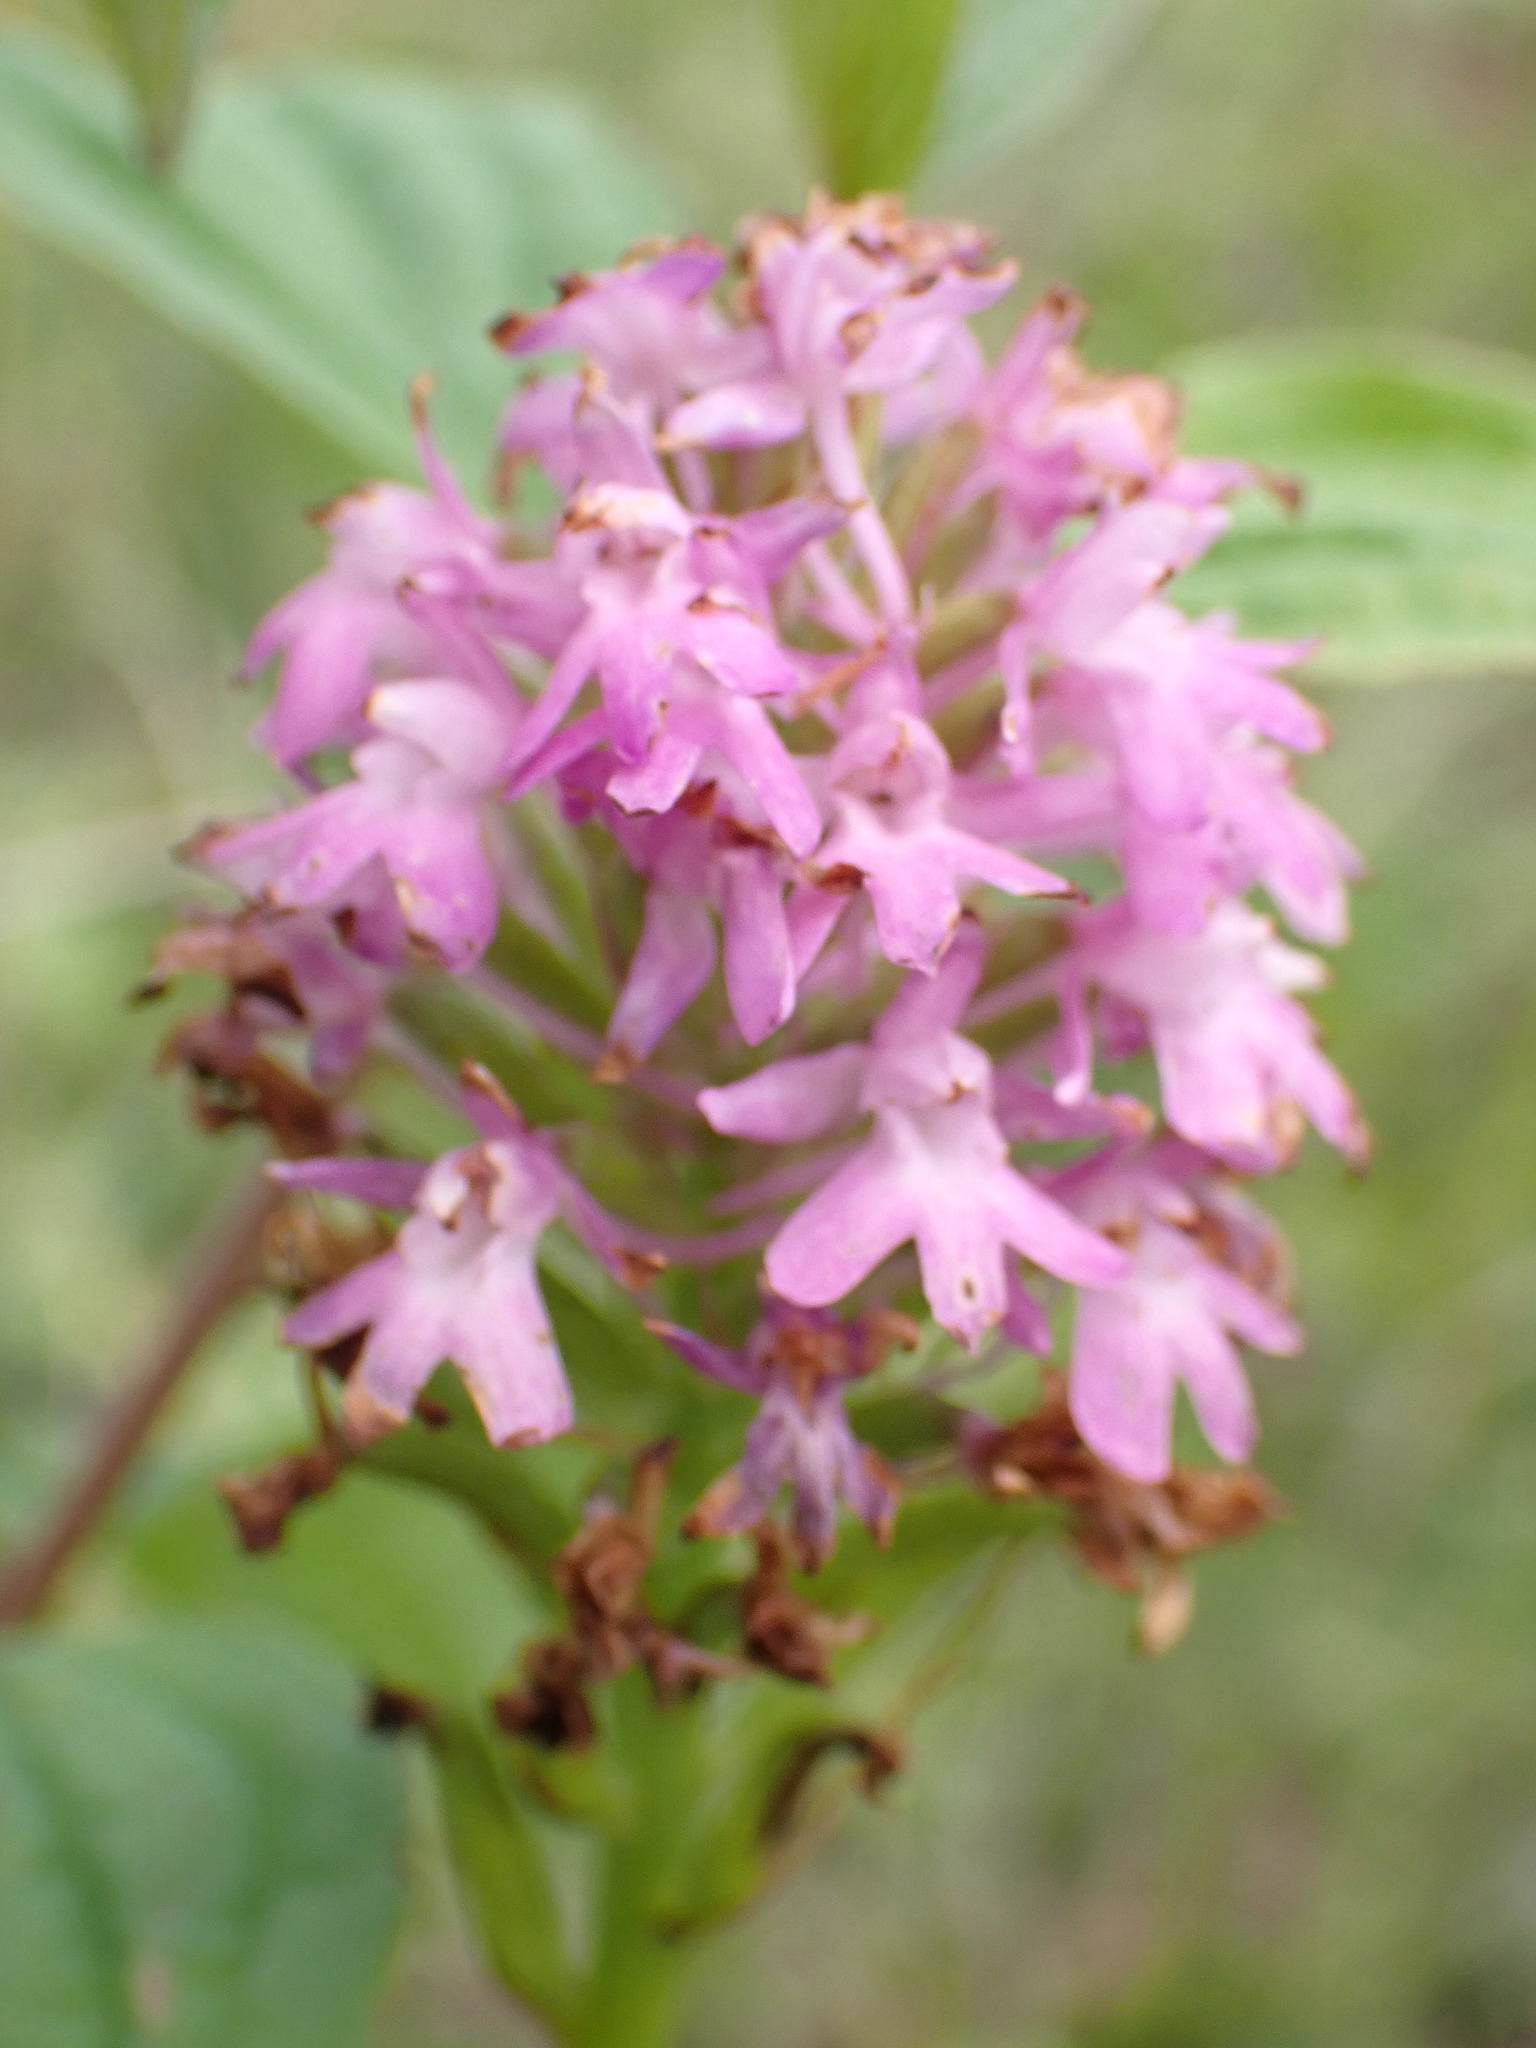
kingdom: Plantae
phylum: Tracheophyta
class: Liliopsida
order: Asparagales
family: Orchidaceae
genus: Anacamptis
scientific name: Anacamptis pyramidalis
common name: Pyramidal orchid
